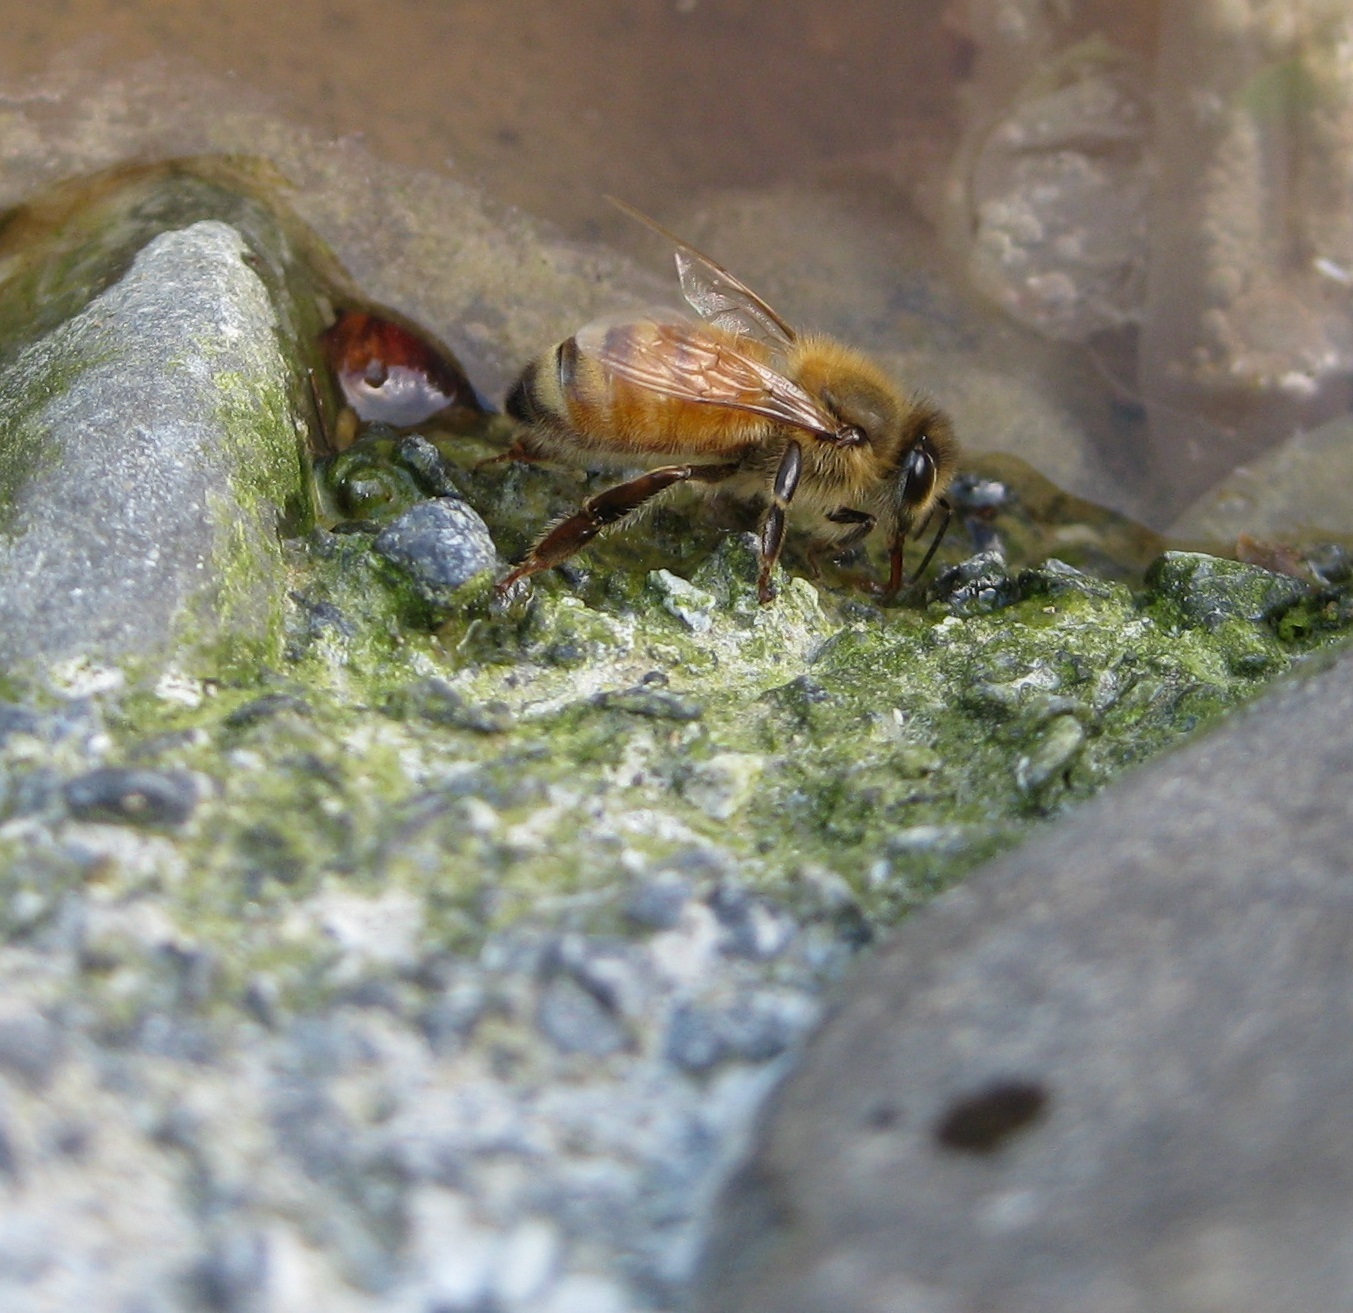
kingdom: Animalia
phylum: Arthropoda
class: Insecta
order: Hymenoptera
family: Apidae
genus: Apis
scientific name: Apis mellifera
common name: Honey bee
